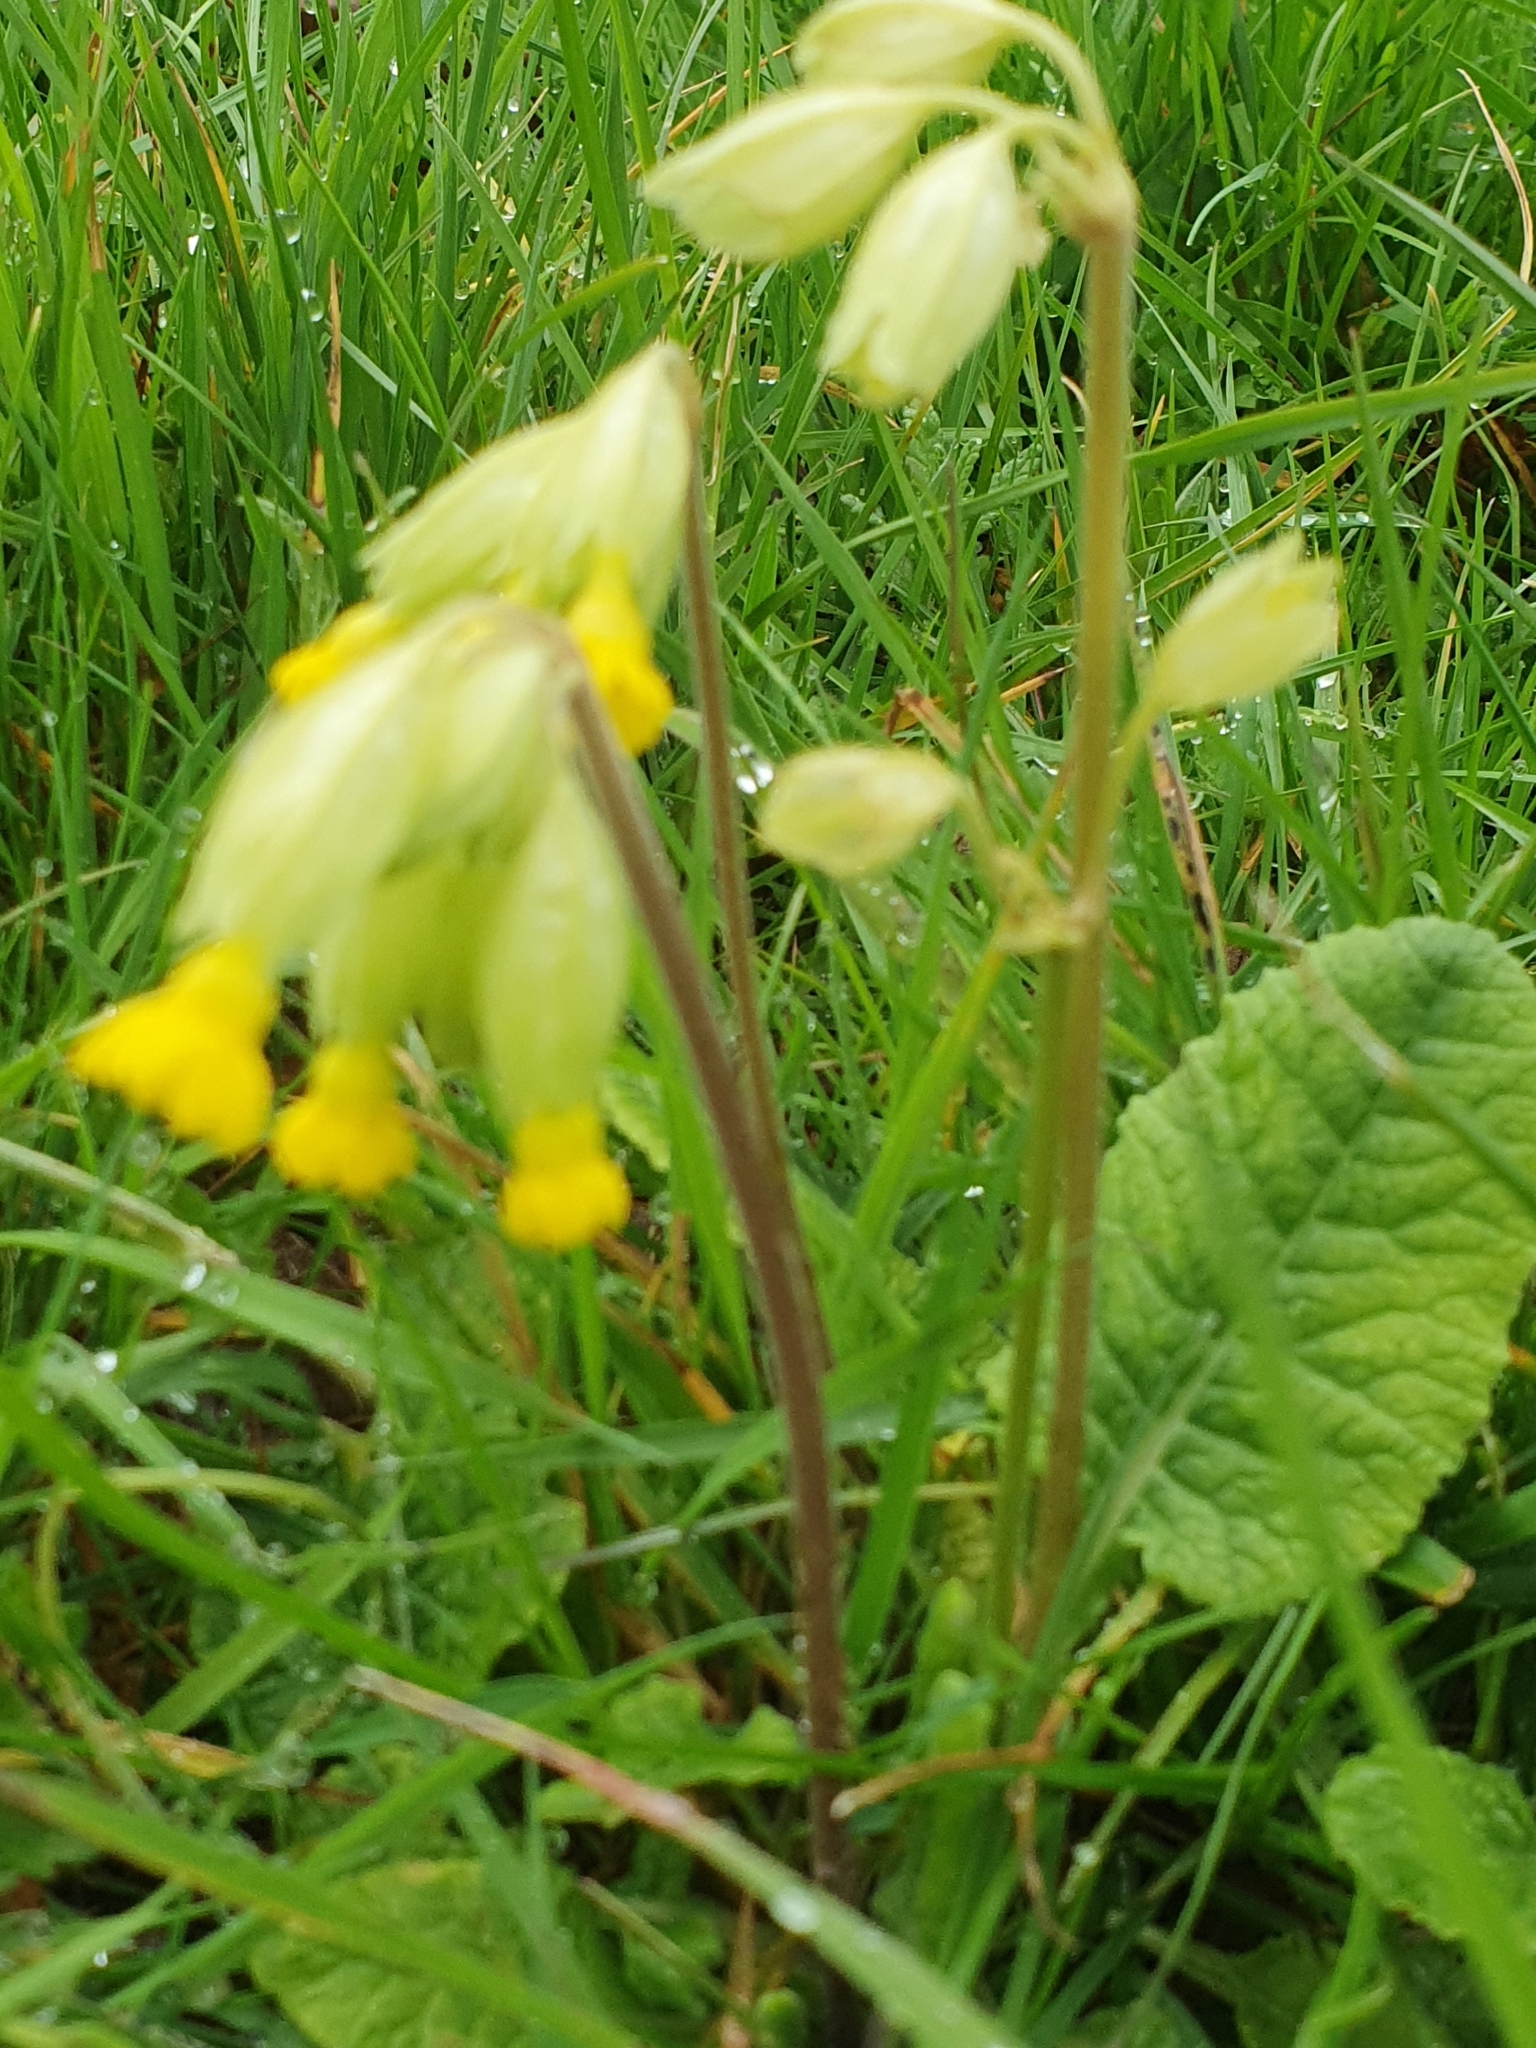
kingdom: Plantae
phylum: Tracheophyta
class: Magnoliopsida
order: Ericales
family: Primulaceae
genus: Primula
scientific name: Primula veris
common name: Cowslip
